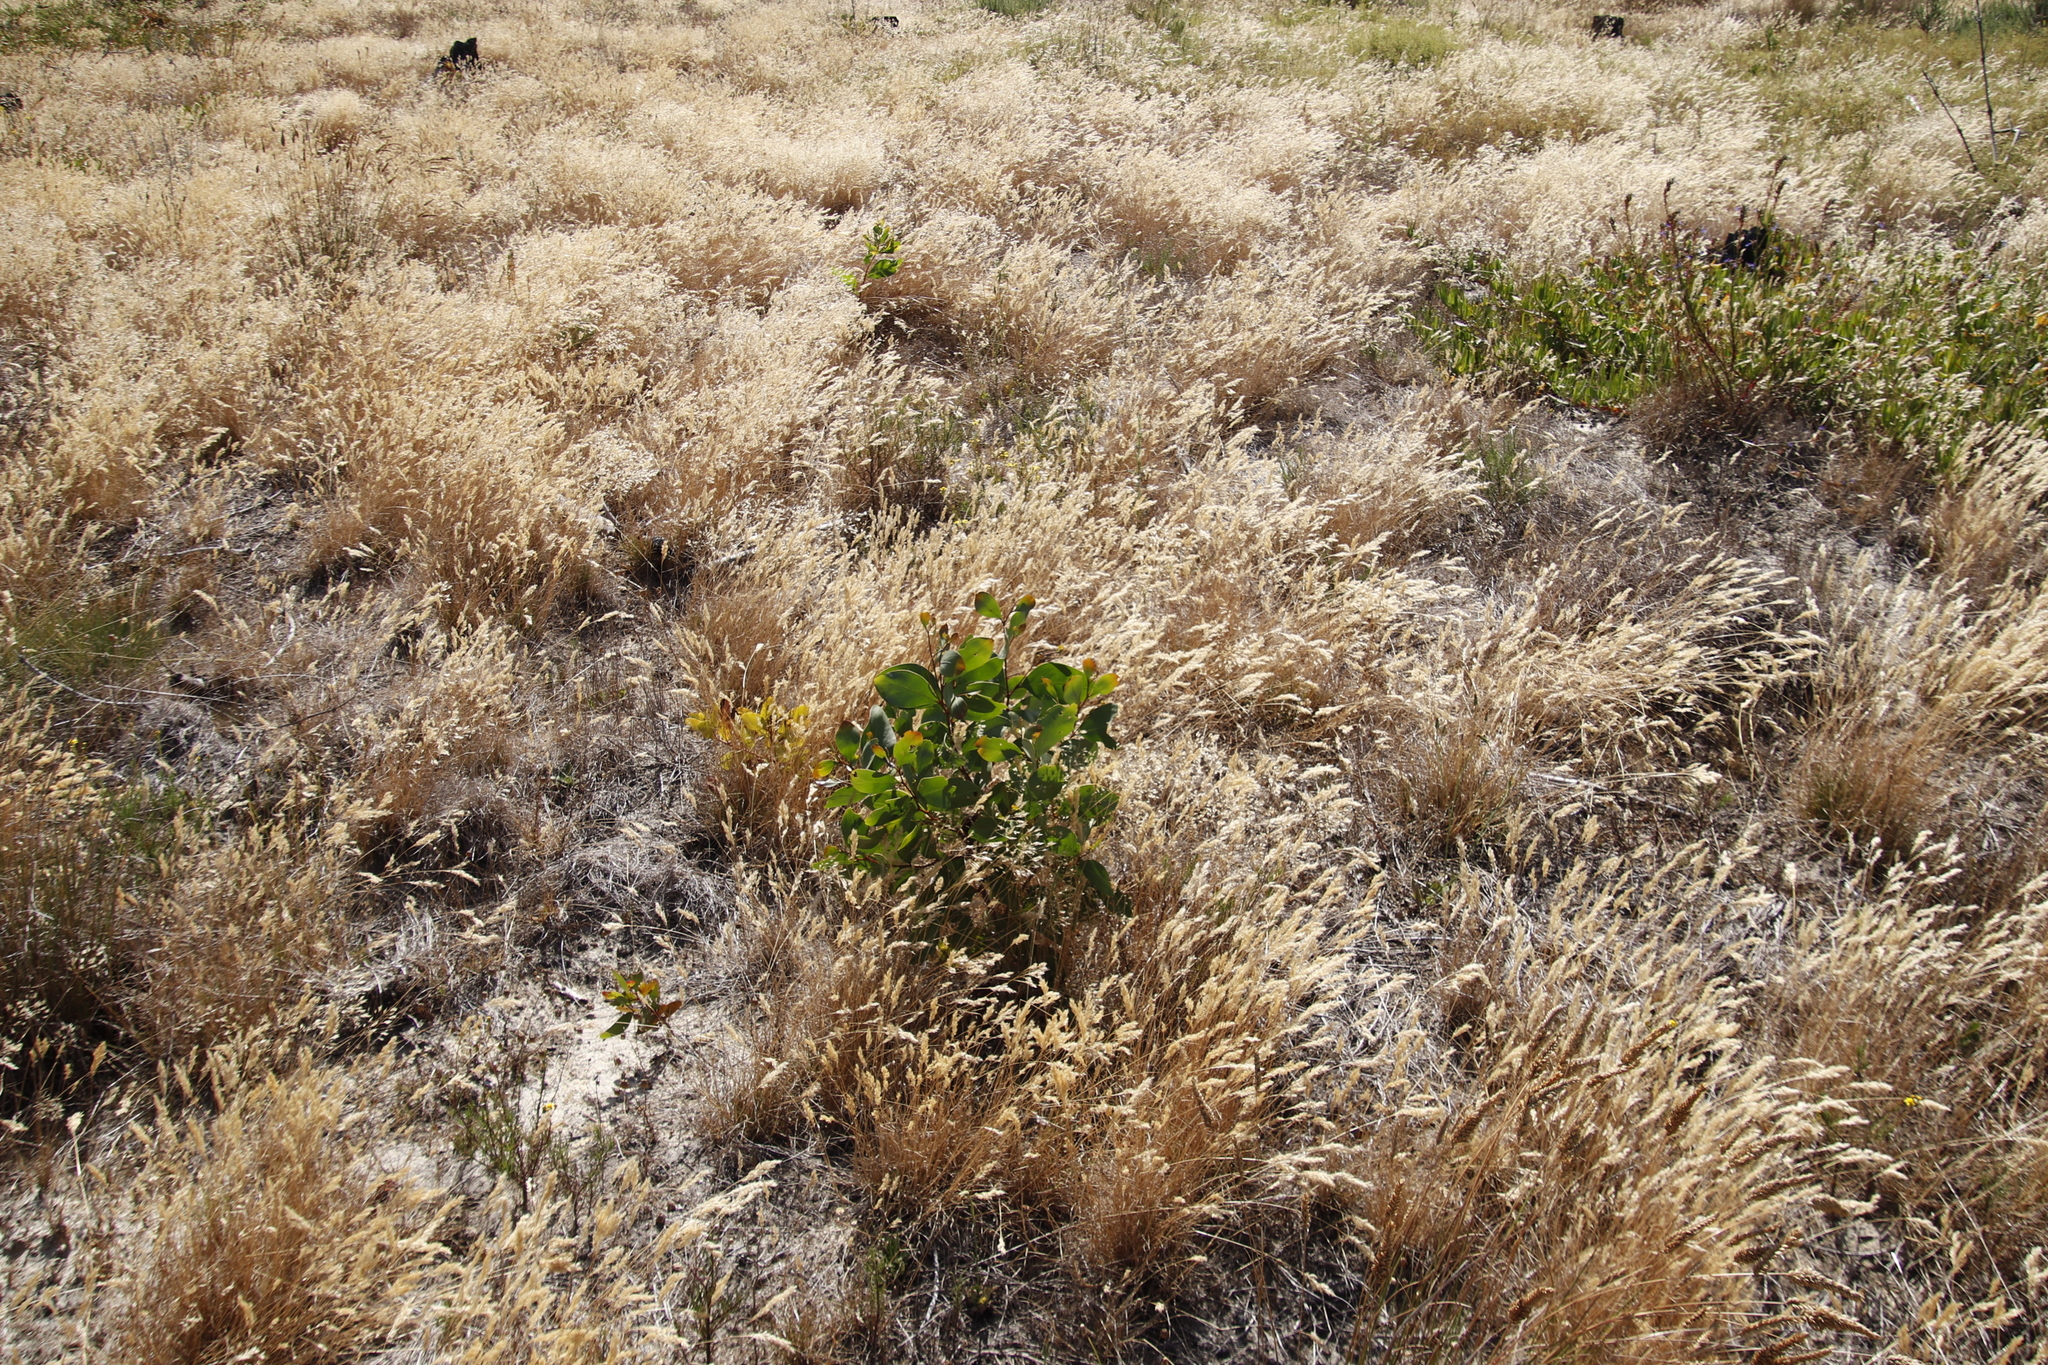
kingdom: Plantae
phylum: Tracheophyta
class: Magnoliopsida
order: Fabales
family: Fabaceae
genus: Acacia
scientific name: Acacia pycnantha
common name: Golden wattle
